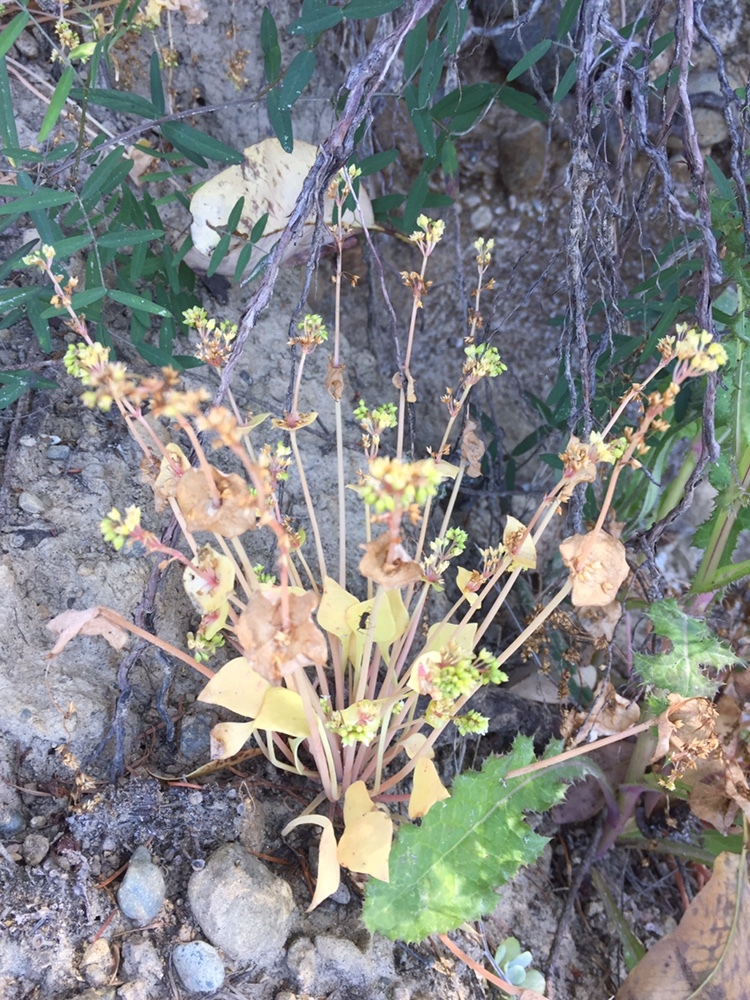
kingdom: Plantae
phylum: Tracheophyta
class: Magnoliopsida
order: Caryophyllales
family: Montiaceae
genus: Claytonia
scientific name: Claytonia perfoliata
